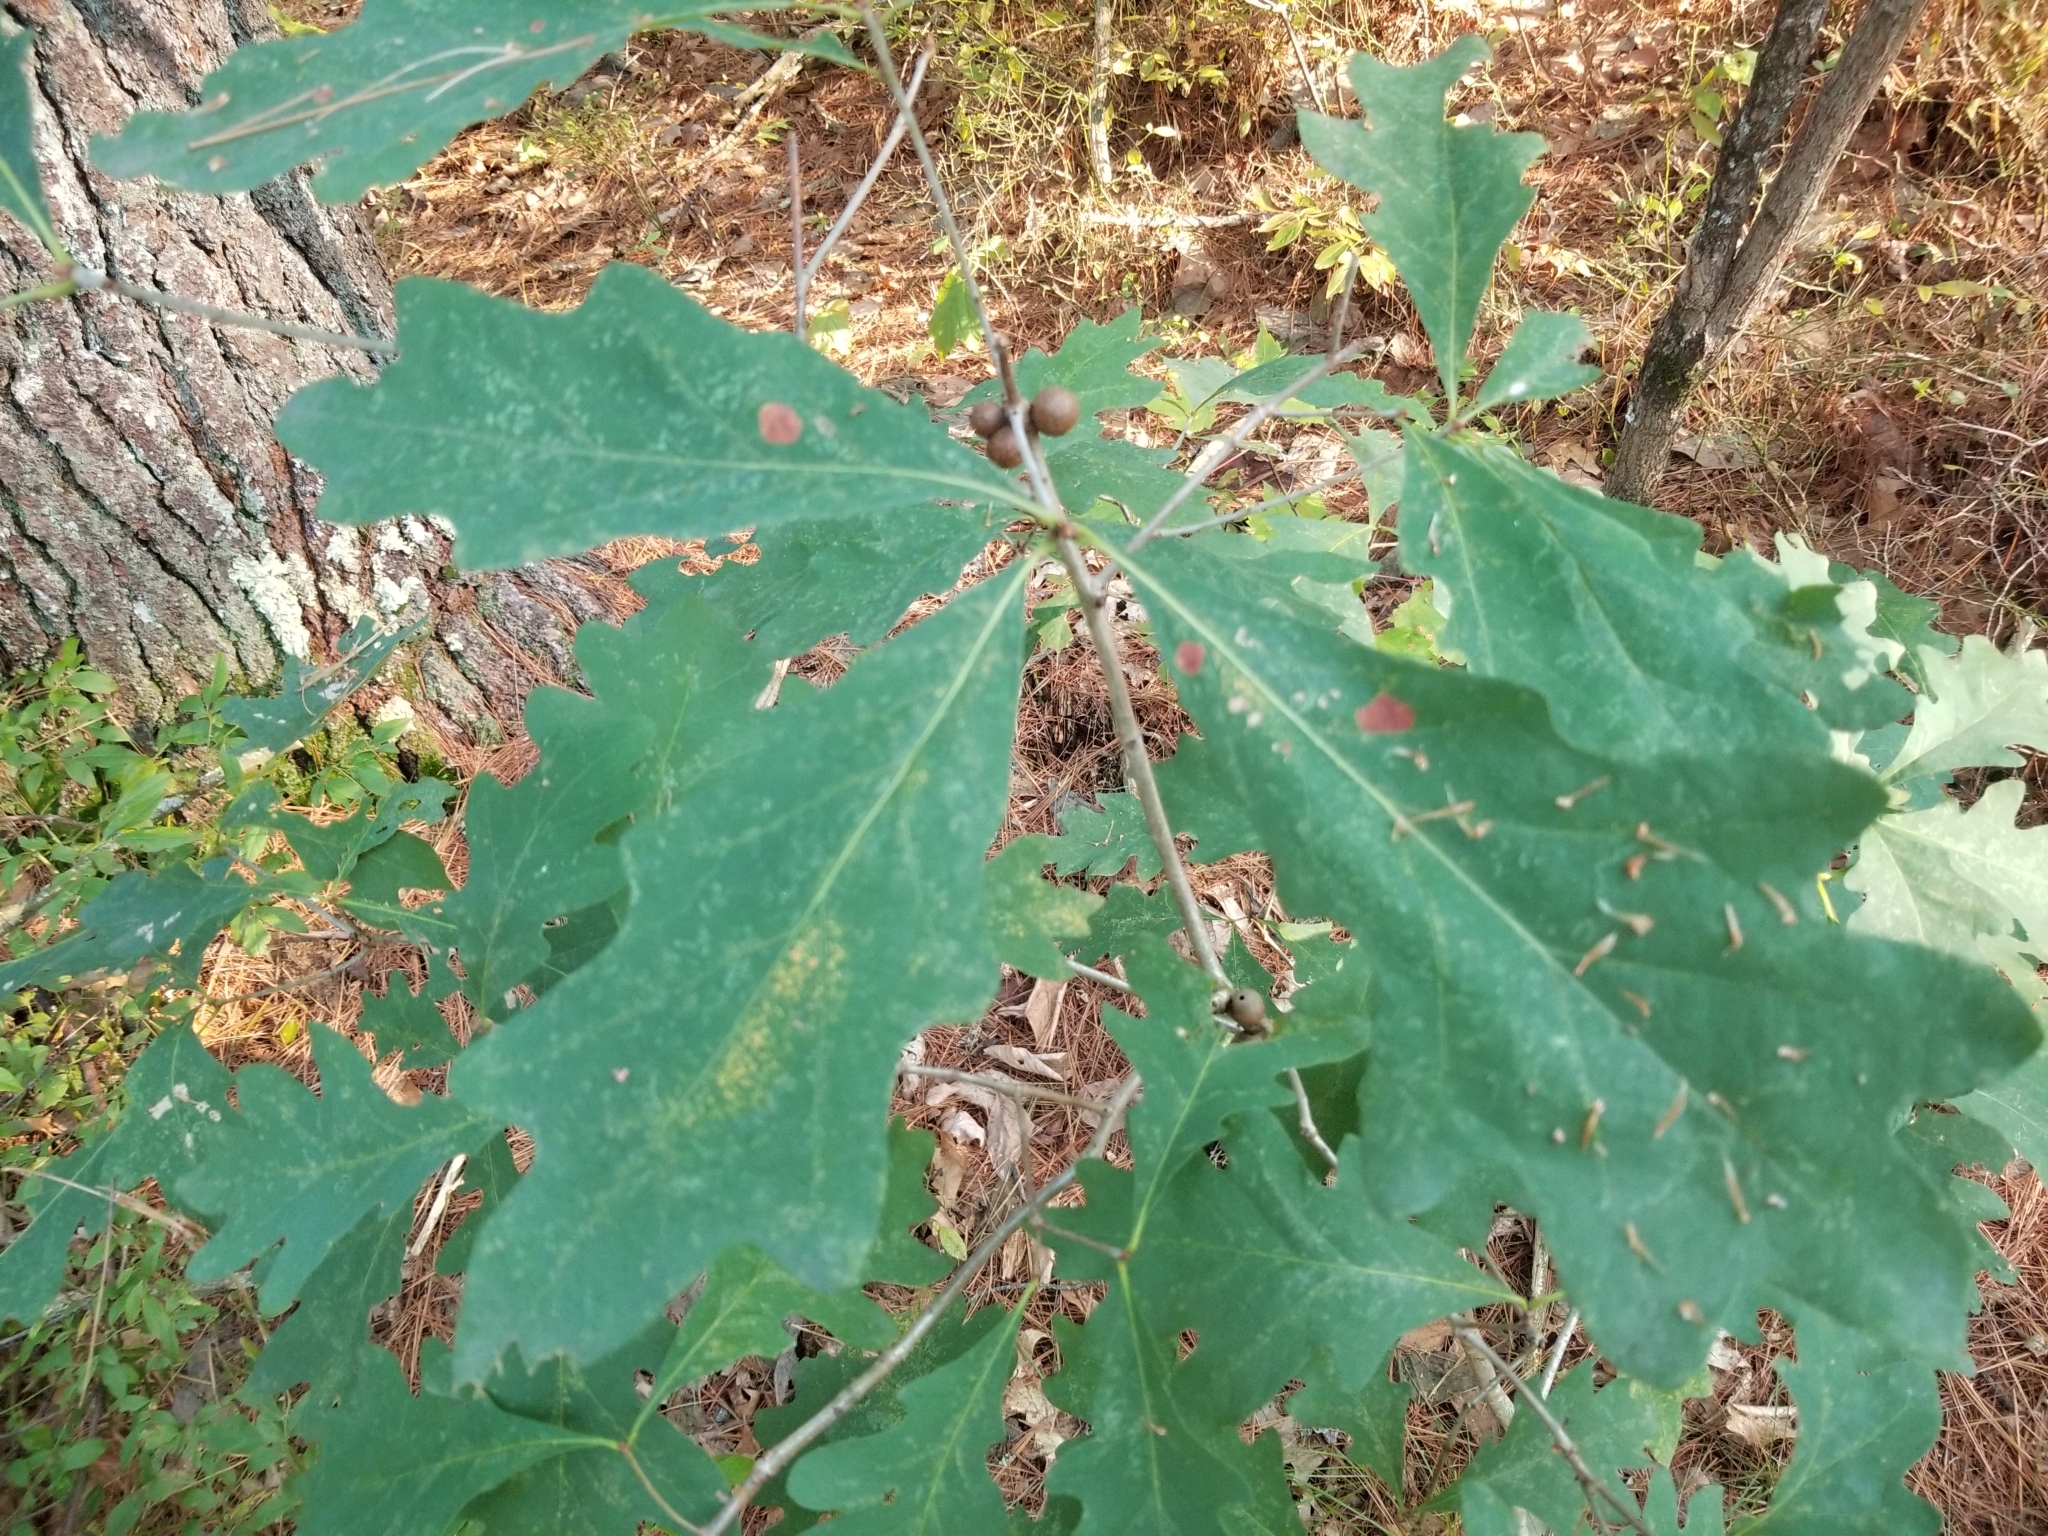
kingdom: Animalia
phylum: Arthropoda
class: Insecta
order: Hymenoptera
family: Cynipidae
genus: Disholcaspis
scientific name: Disholcaspis quercusglobulus
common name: Round bullet gall wasp
